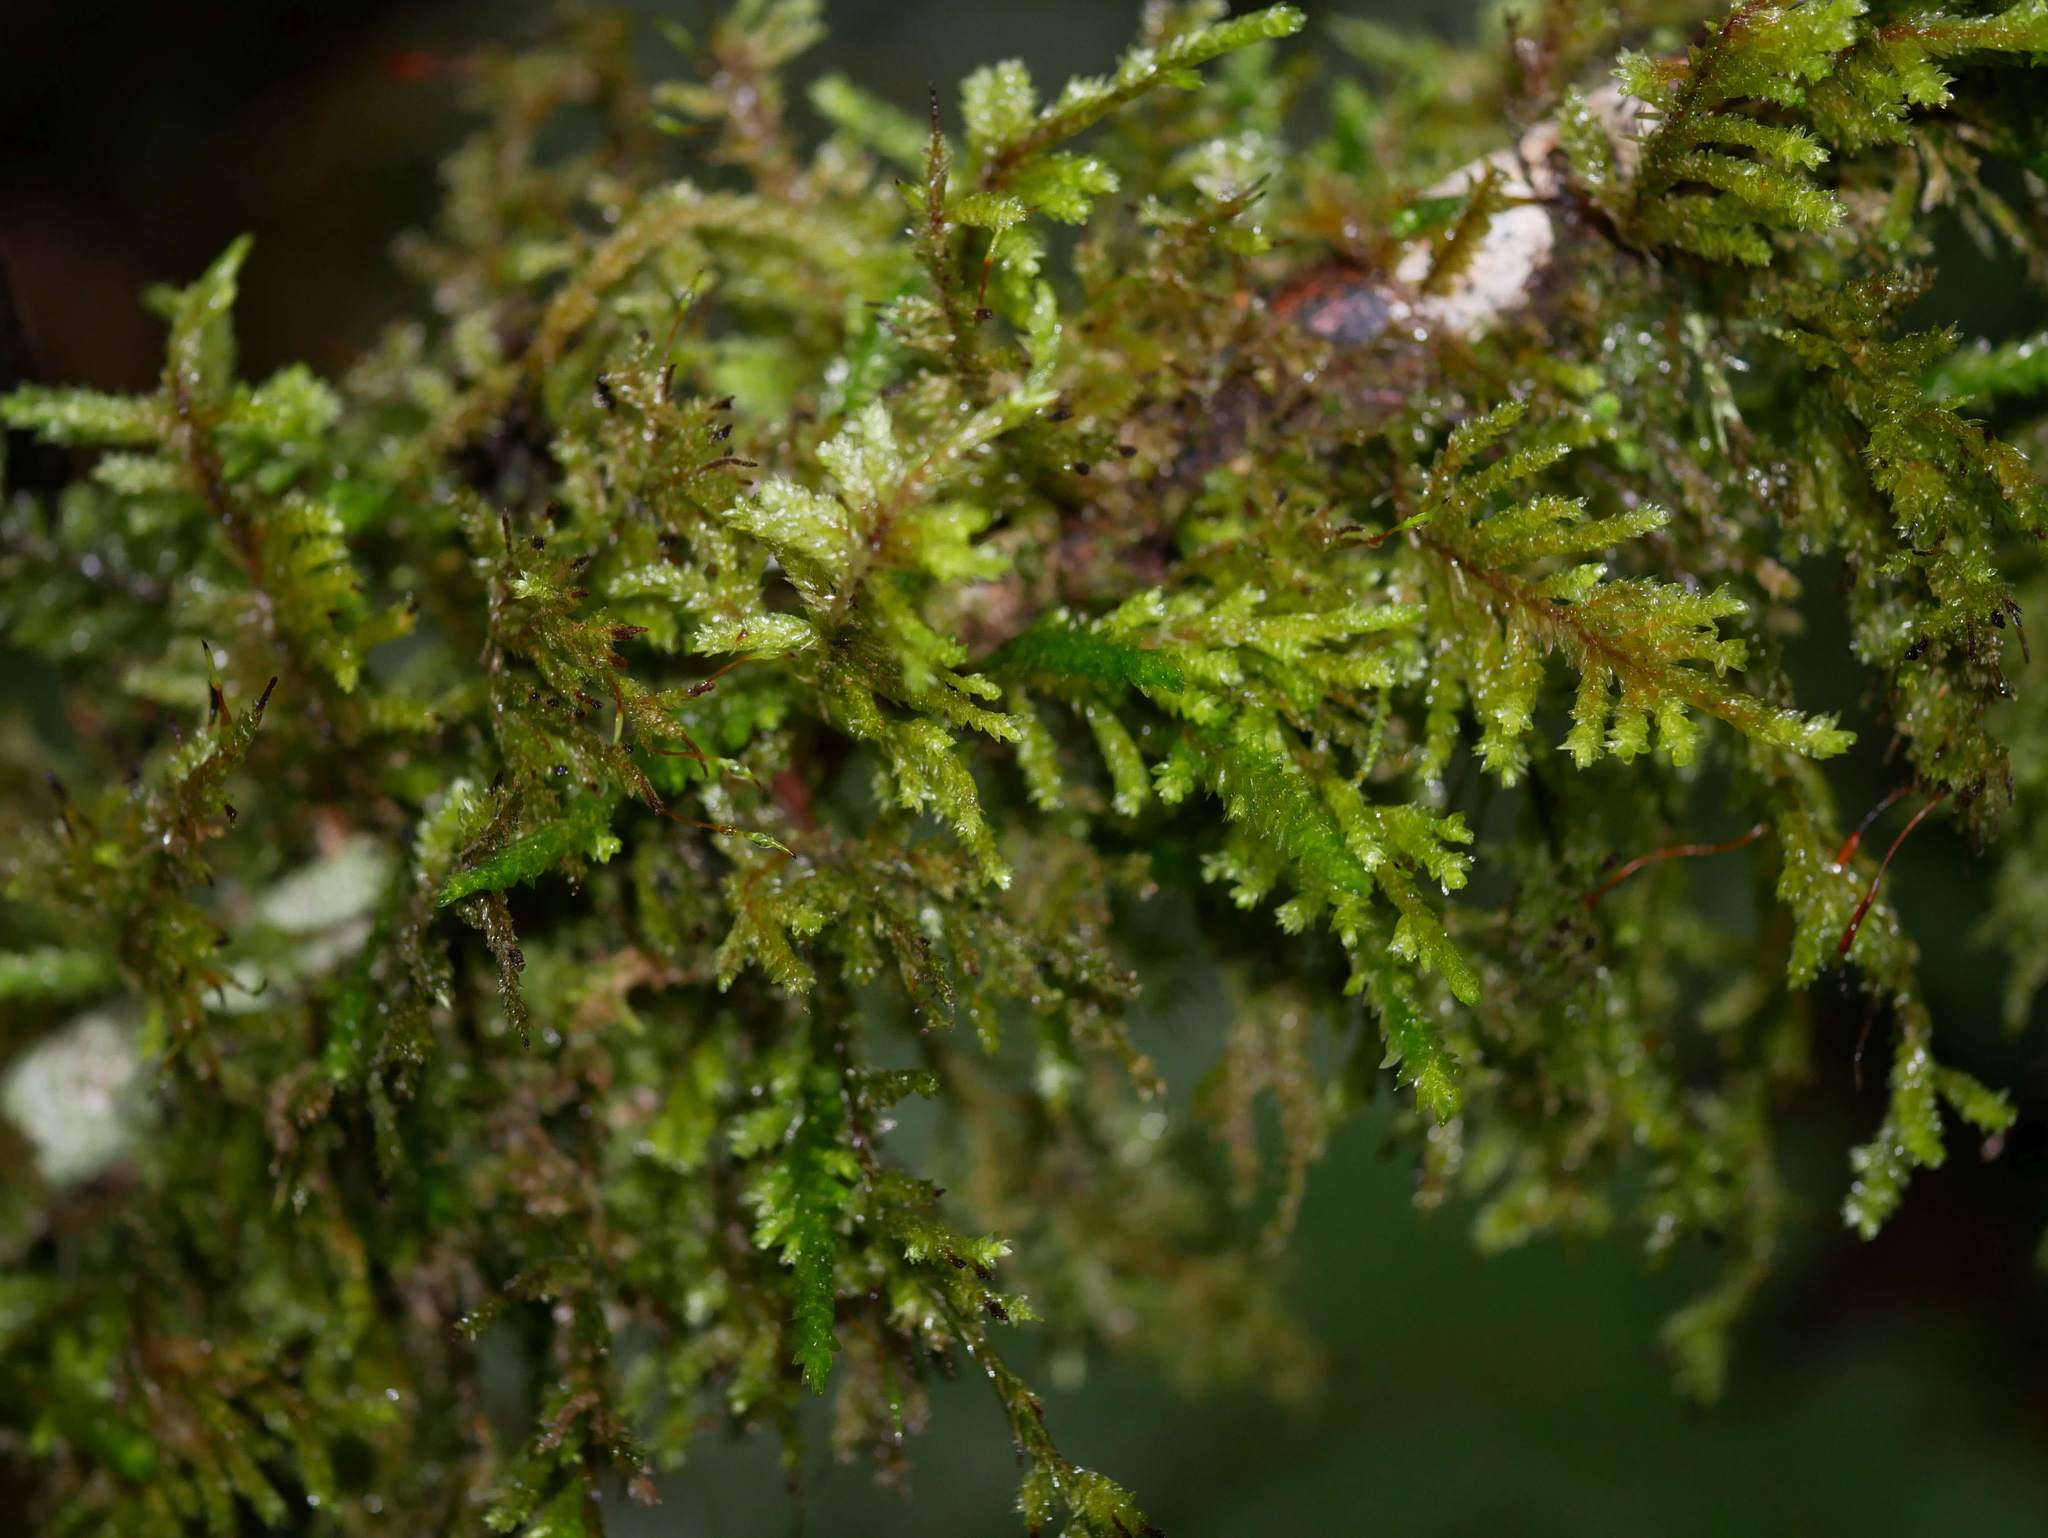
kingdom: Plantae
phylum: Bryophyta
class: Bryopsida
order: Hypnales
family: Trachylomataceae
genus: Trachyloma
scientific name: Trachyloma diversinerve
